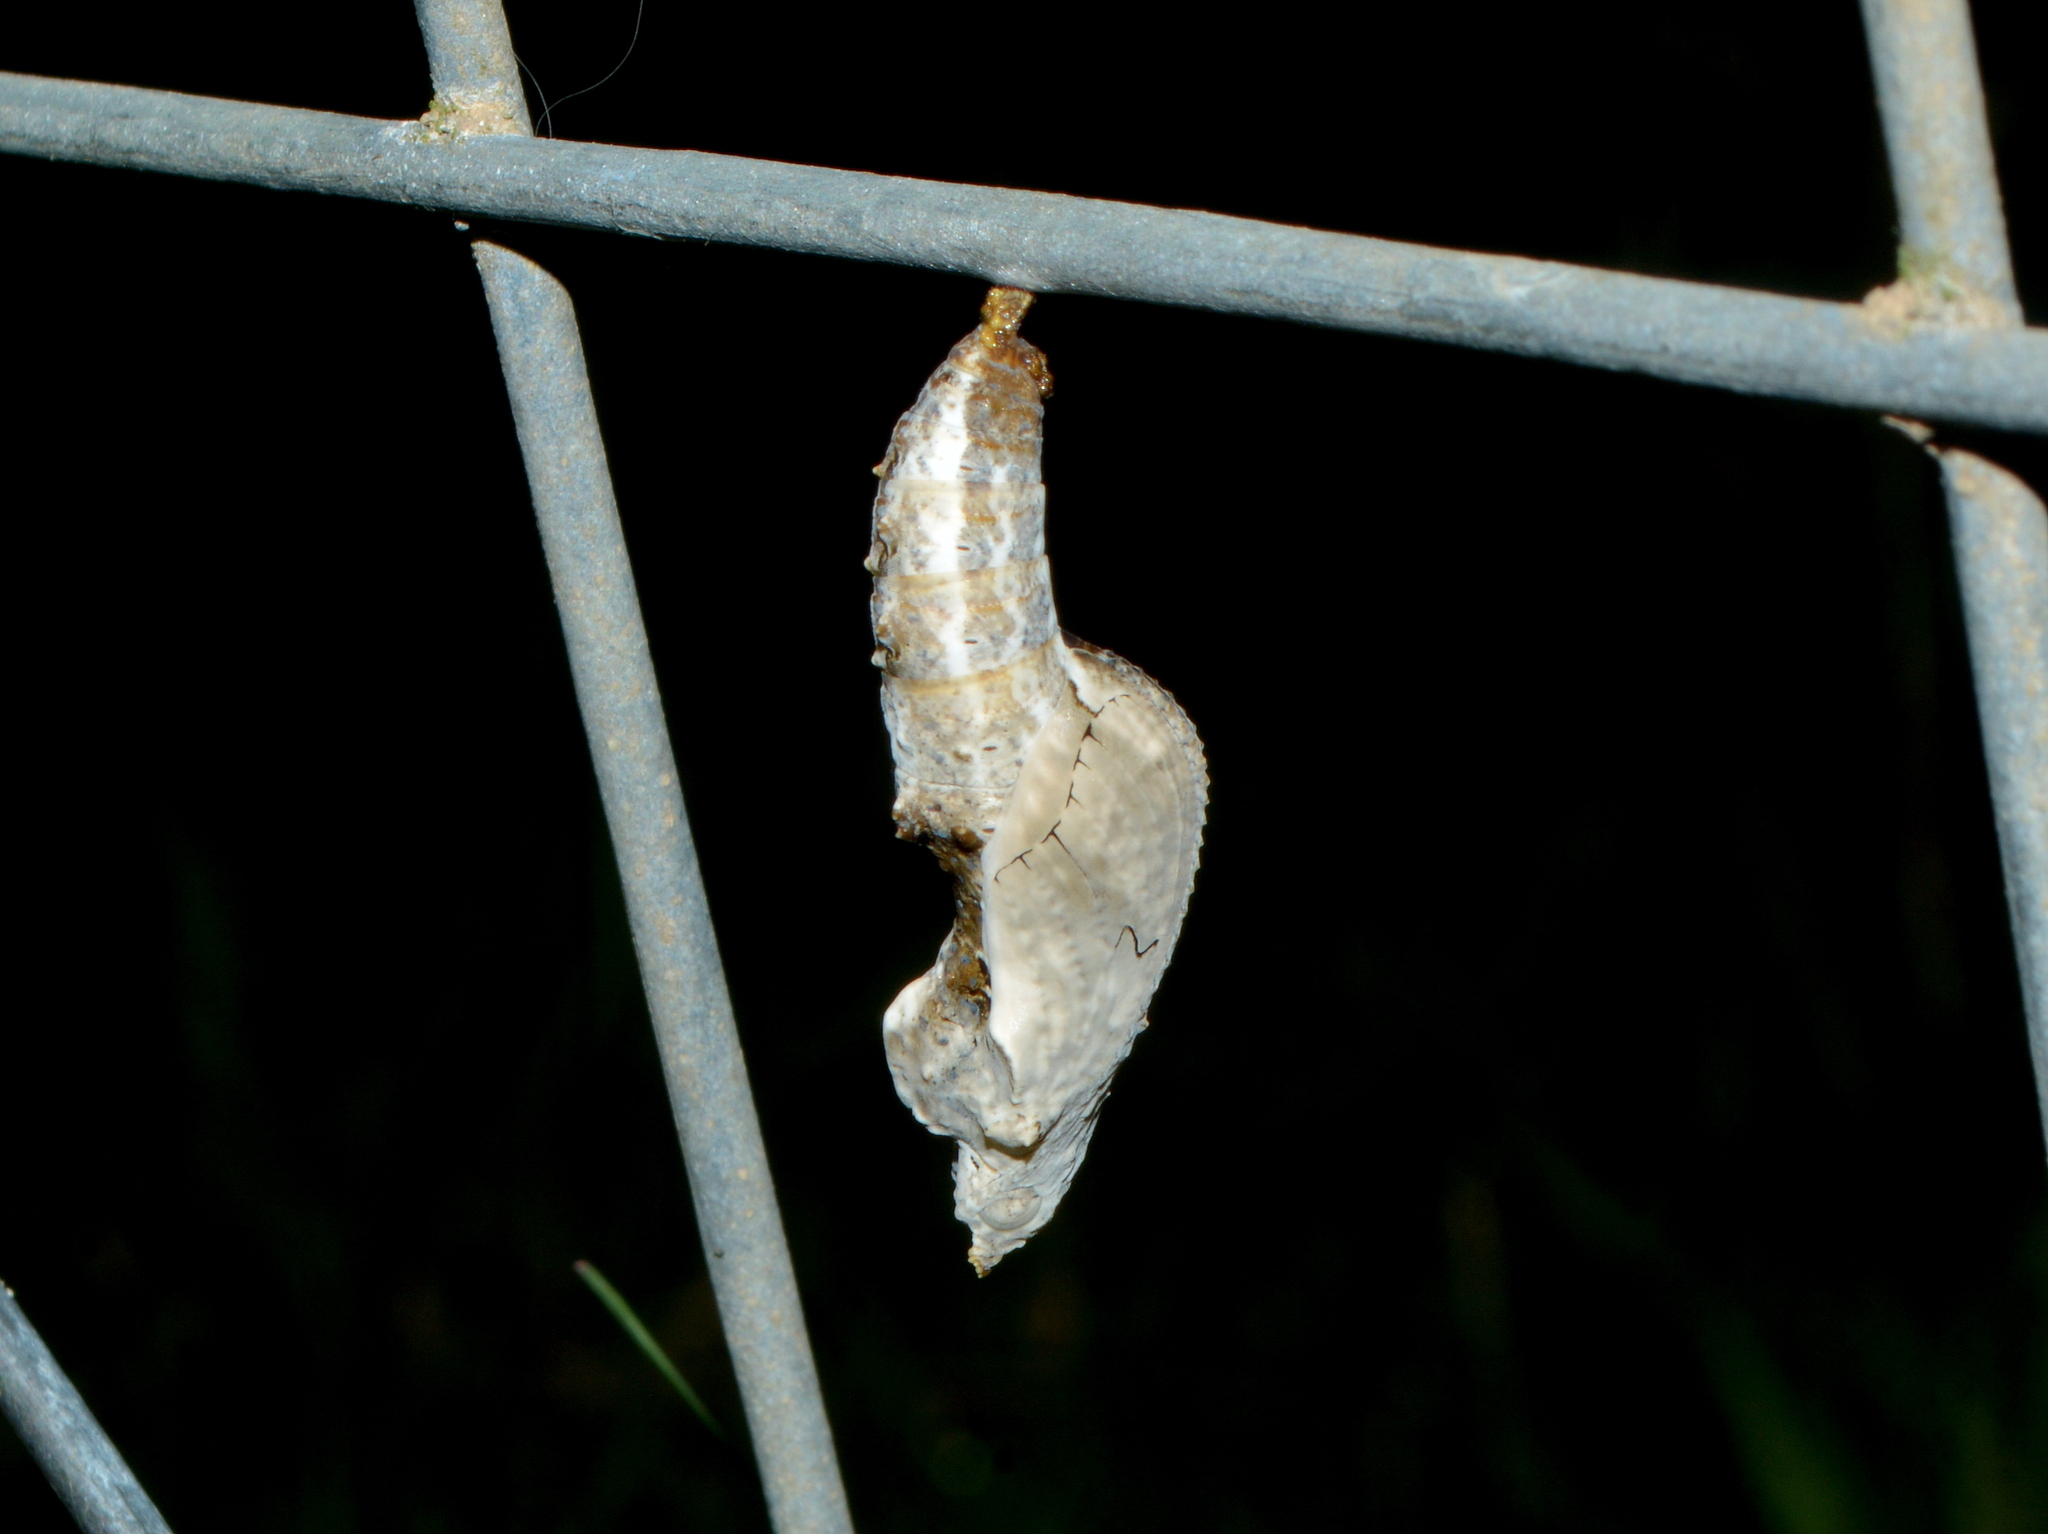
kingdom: Animalia
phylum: Arthropoda
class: Insecta
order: Lepidoptera
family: Nymphalidae
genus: Dione
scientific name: Dione vanillae
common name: Gulf fritillary
